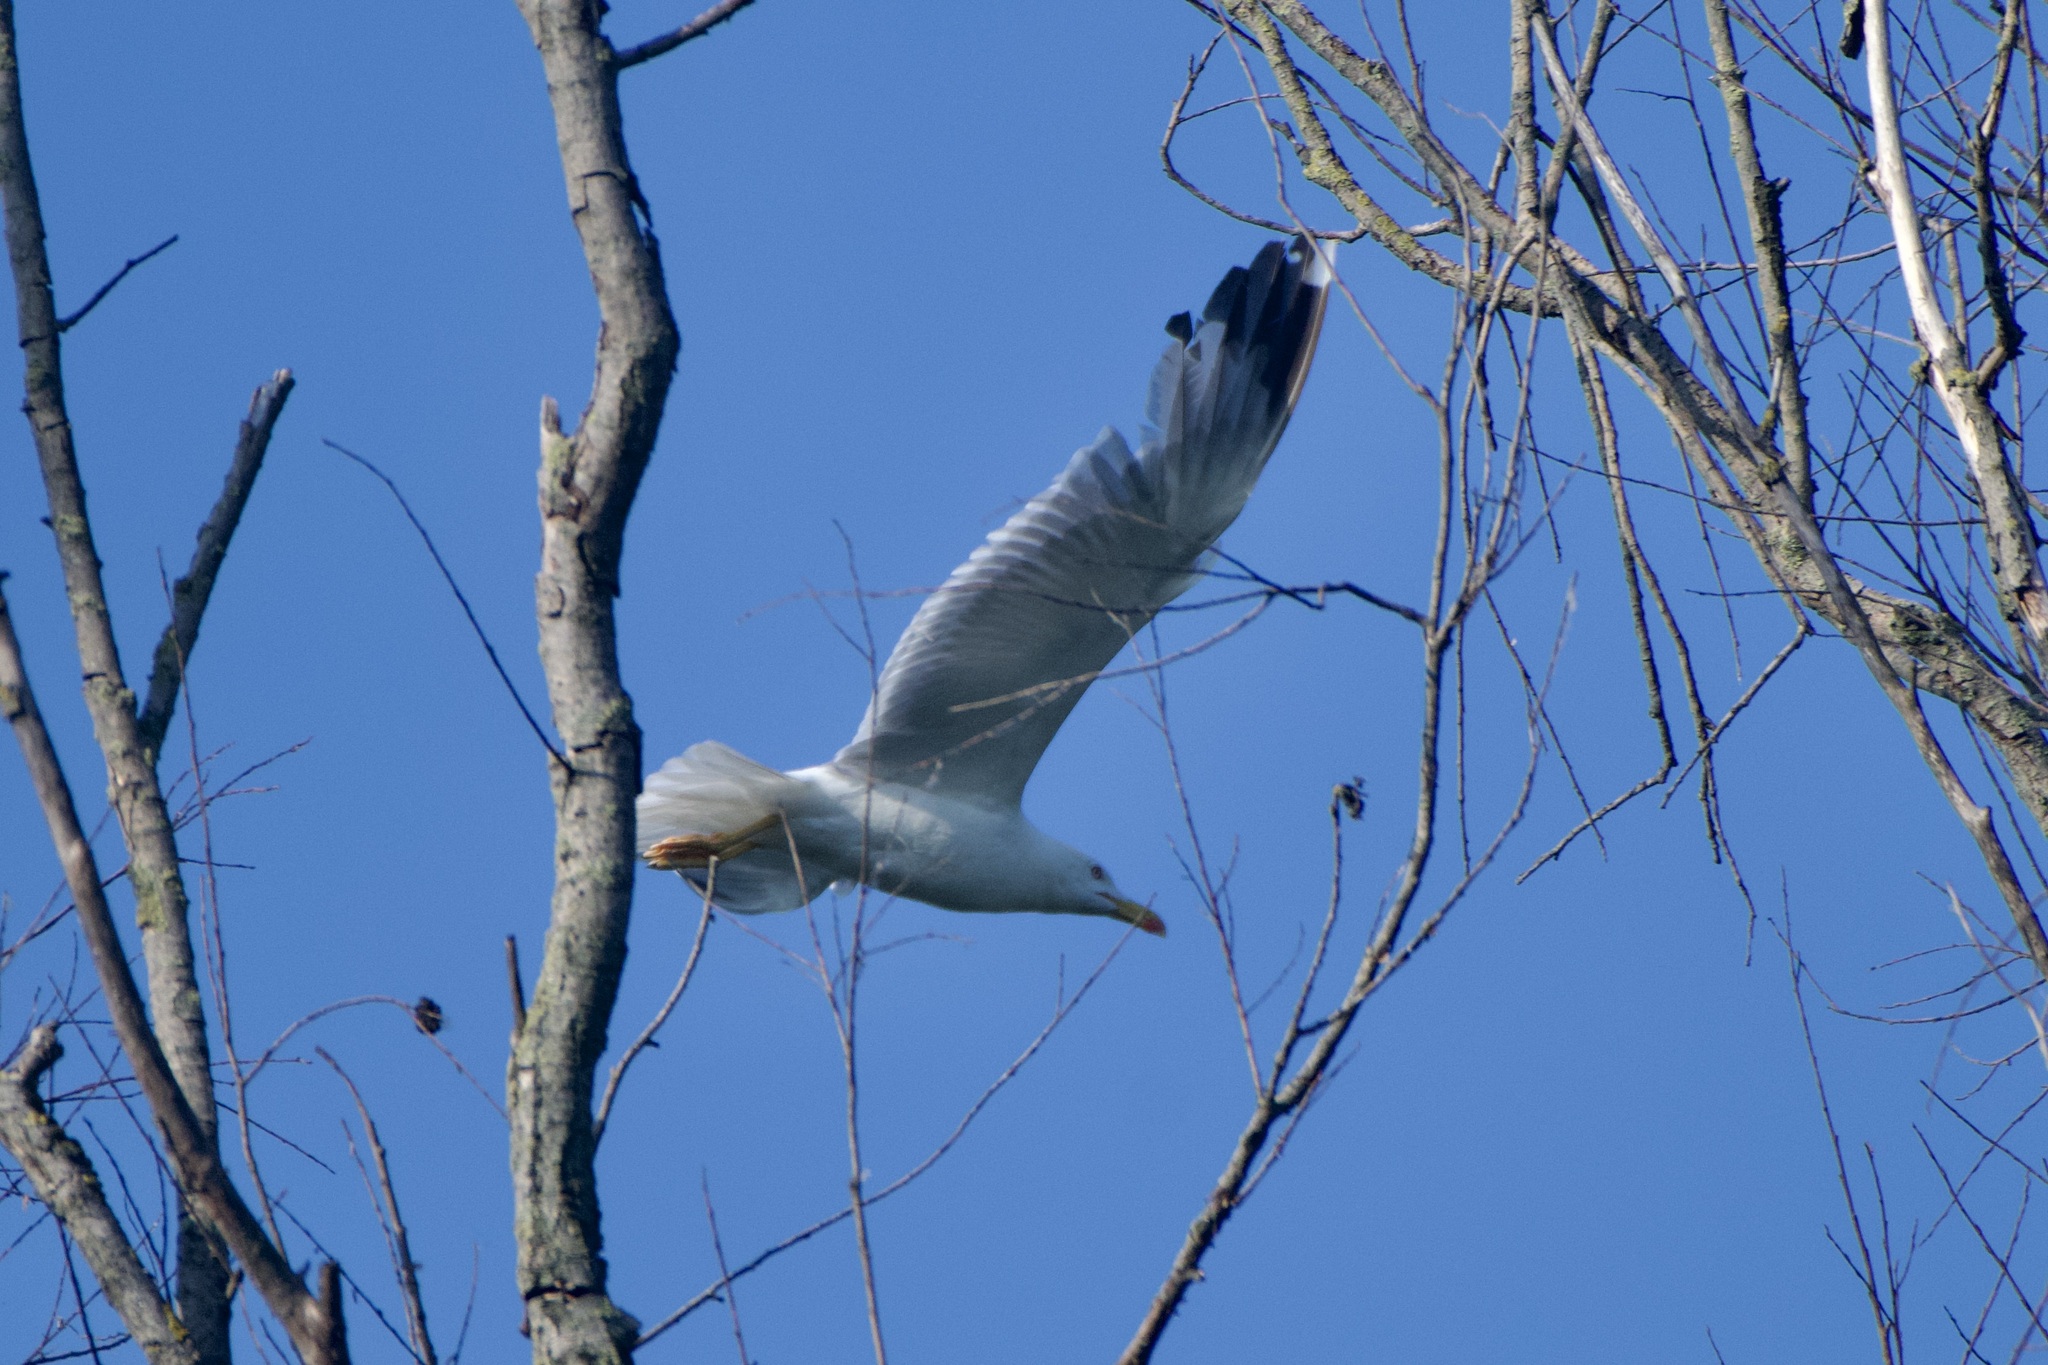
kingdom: Animalia
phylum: Chordata
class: Aves
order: Charadriiformes
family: Laridae
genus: Larus
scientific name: Larus michahellis
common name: Yellow-legged gull
